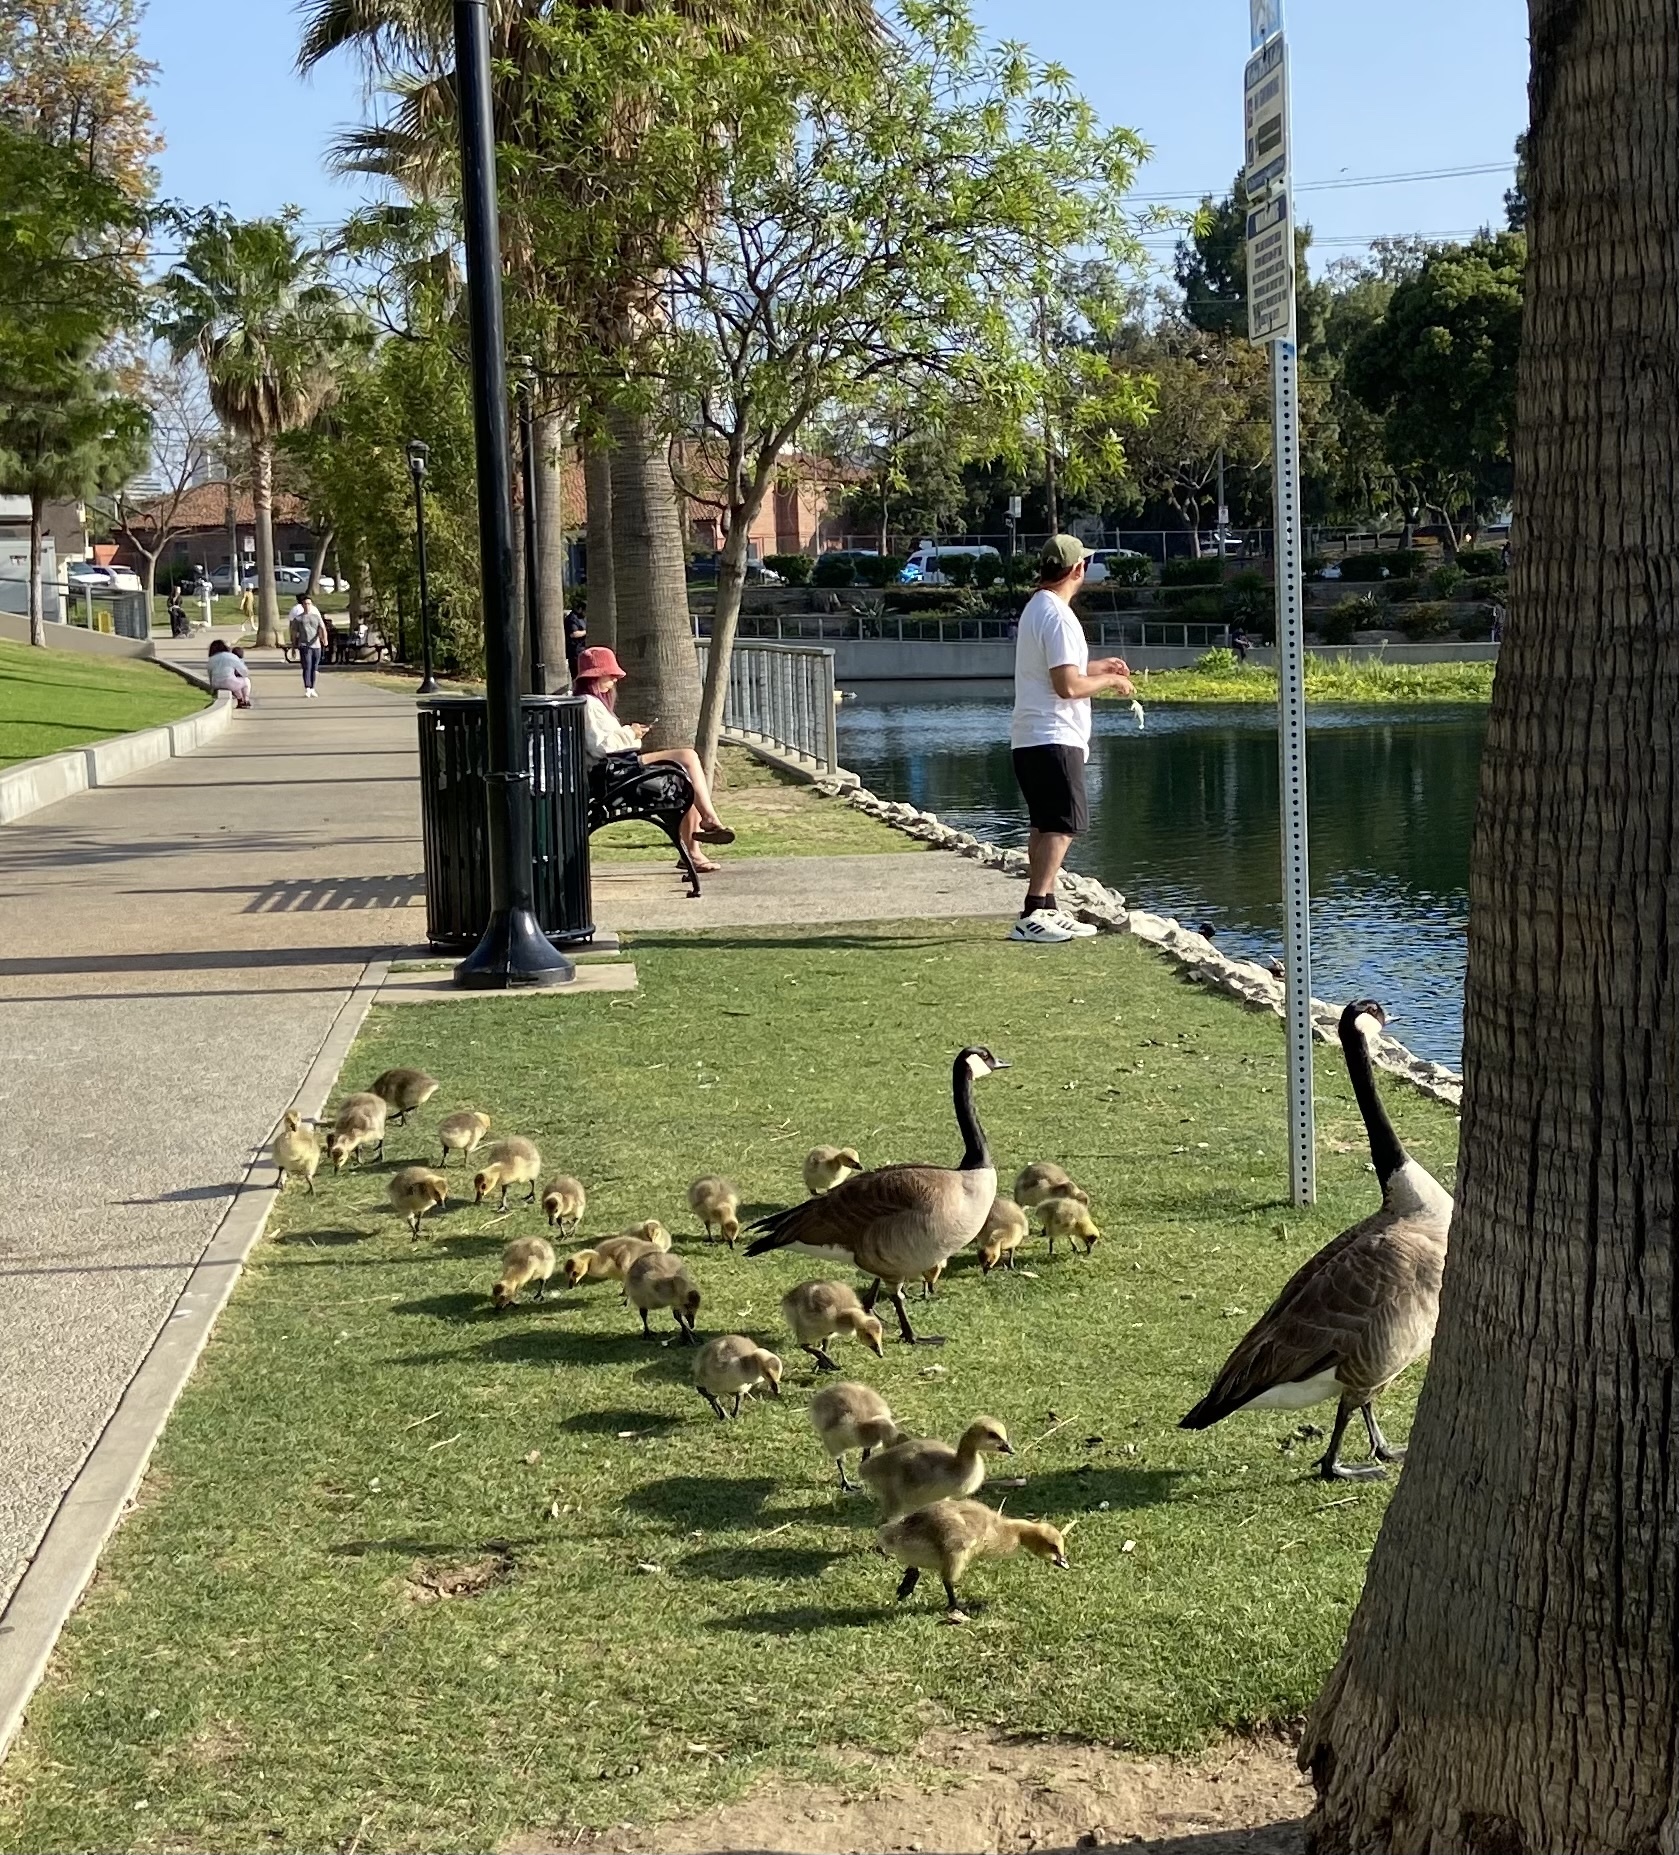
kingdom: Animalia
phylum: Chordata
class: Aves
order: Anseriformes
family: Anatidae
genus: Branta
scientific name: Branta canadensis
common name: Canada goose
